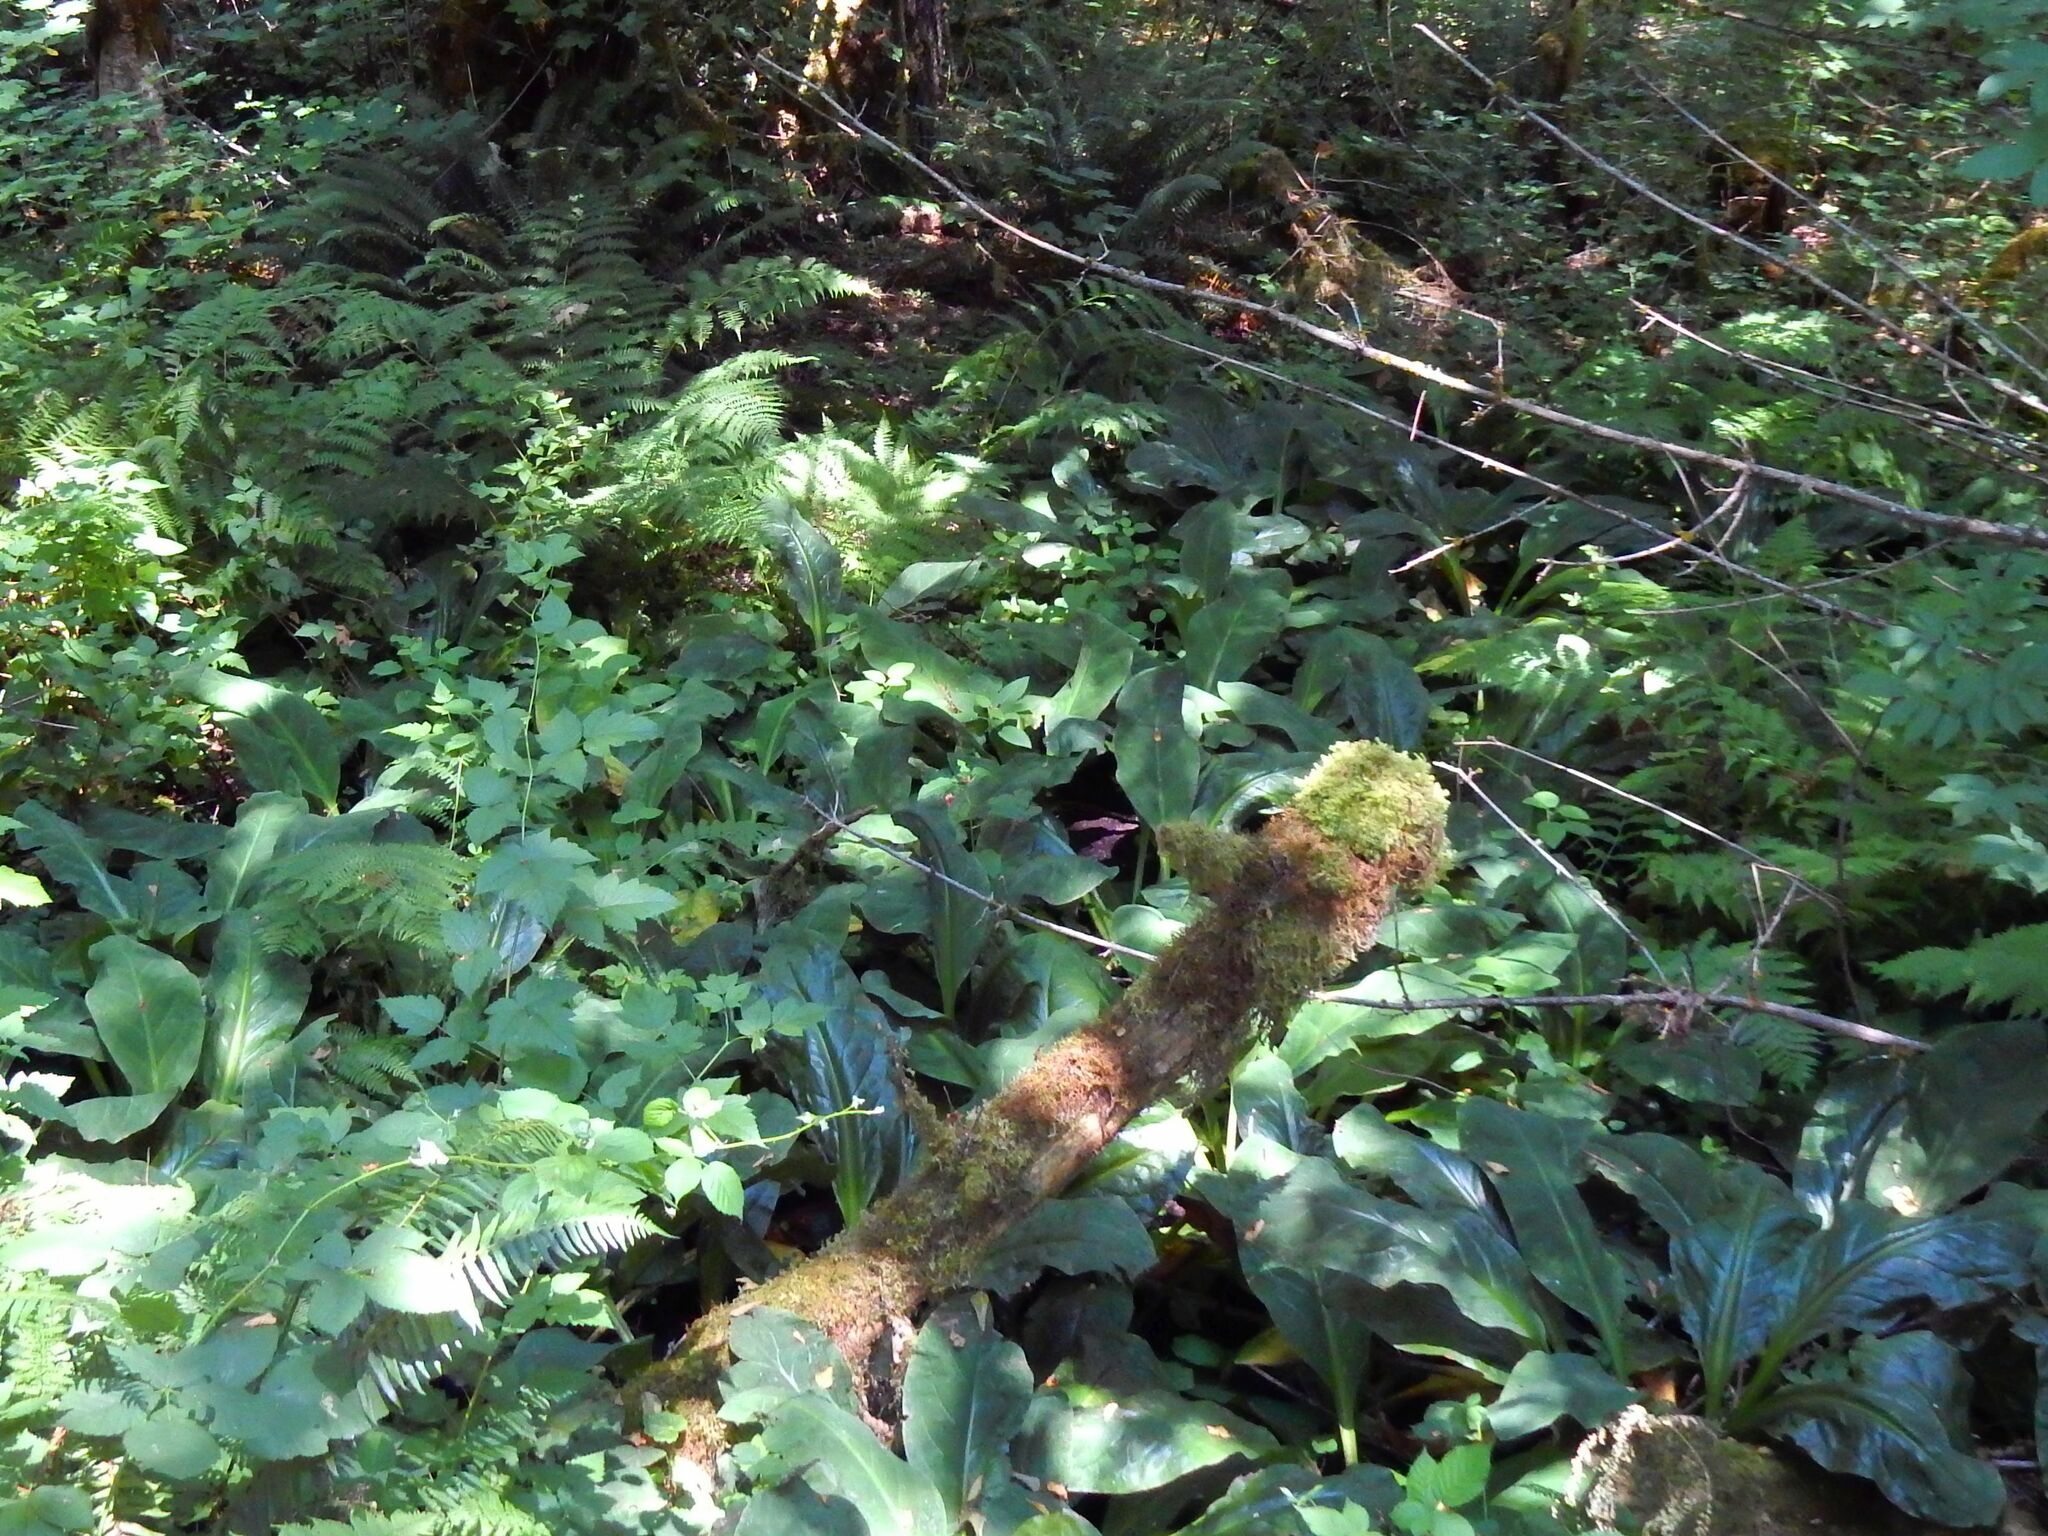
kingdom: Plantae
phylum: Tracheophyta
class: Liliopsida
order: Alismatales
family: Araceae
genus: Lysichiton
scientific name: Lysichiton americanus
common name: American skunk cabbage
